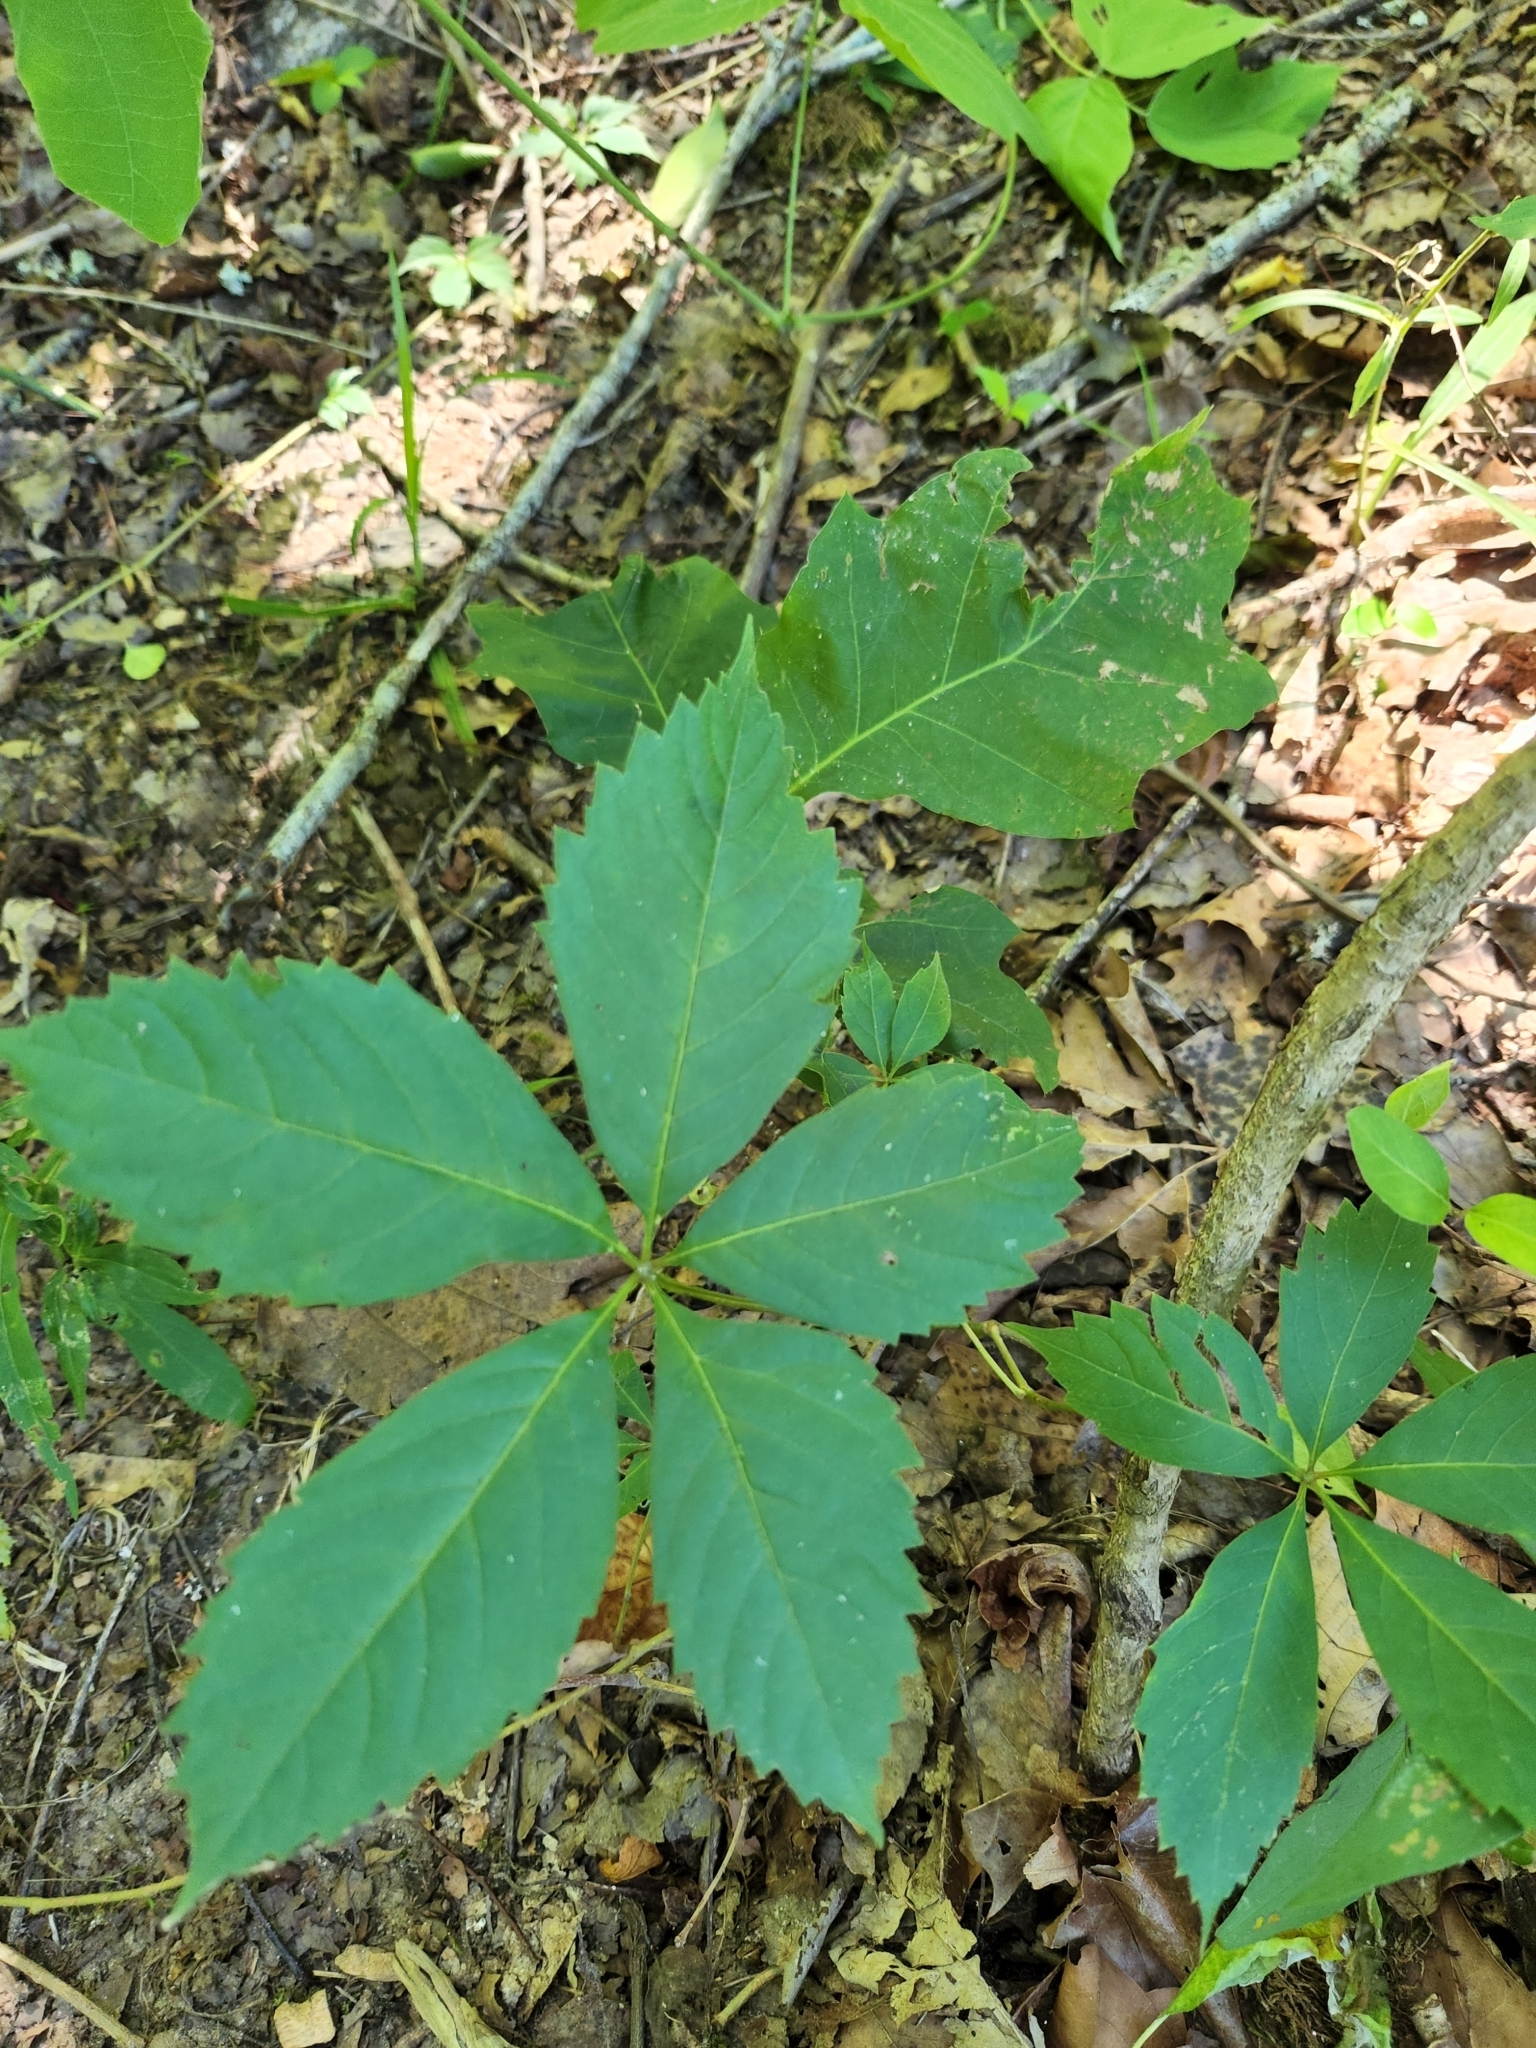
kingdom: Plantae
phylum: Tracheophyta
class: Magnoliopsida
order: Vitales
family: Vitaceae
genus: Parthenocissus
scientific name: Parthenocissus quinquefolia
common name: Virginia-creeper
